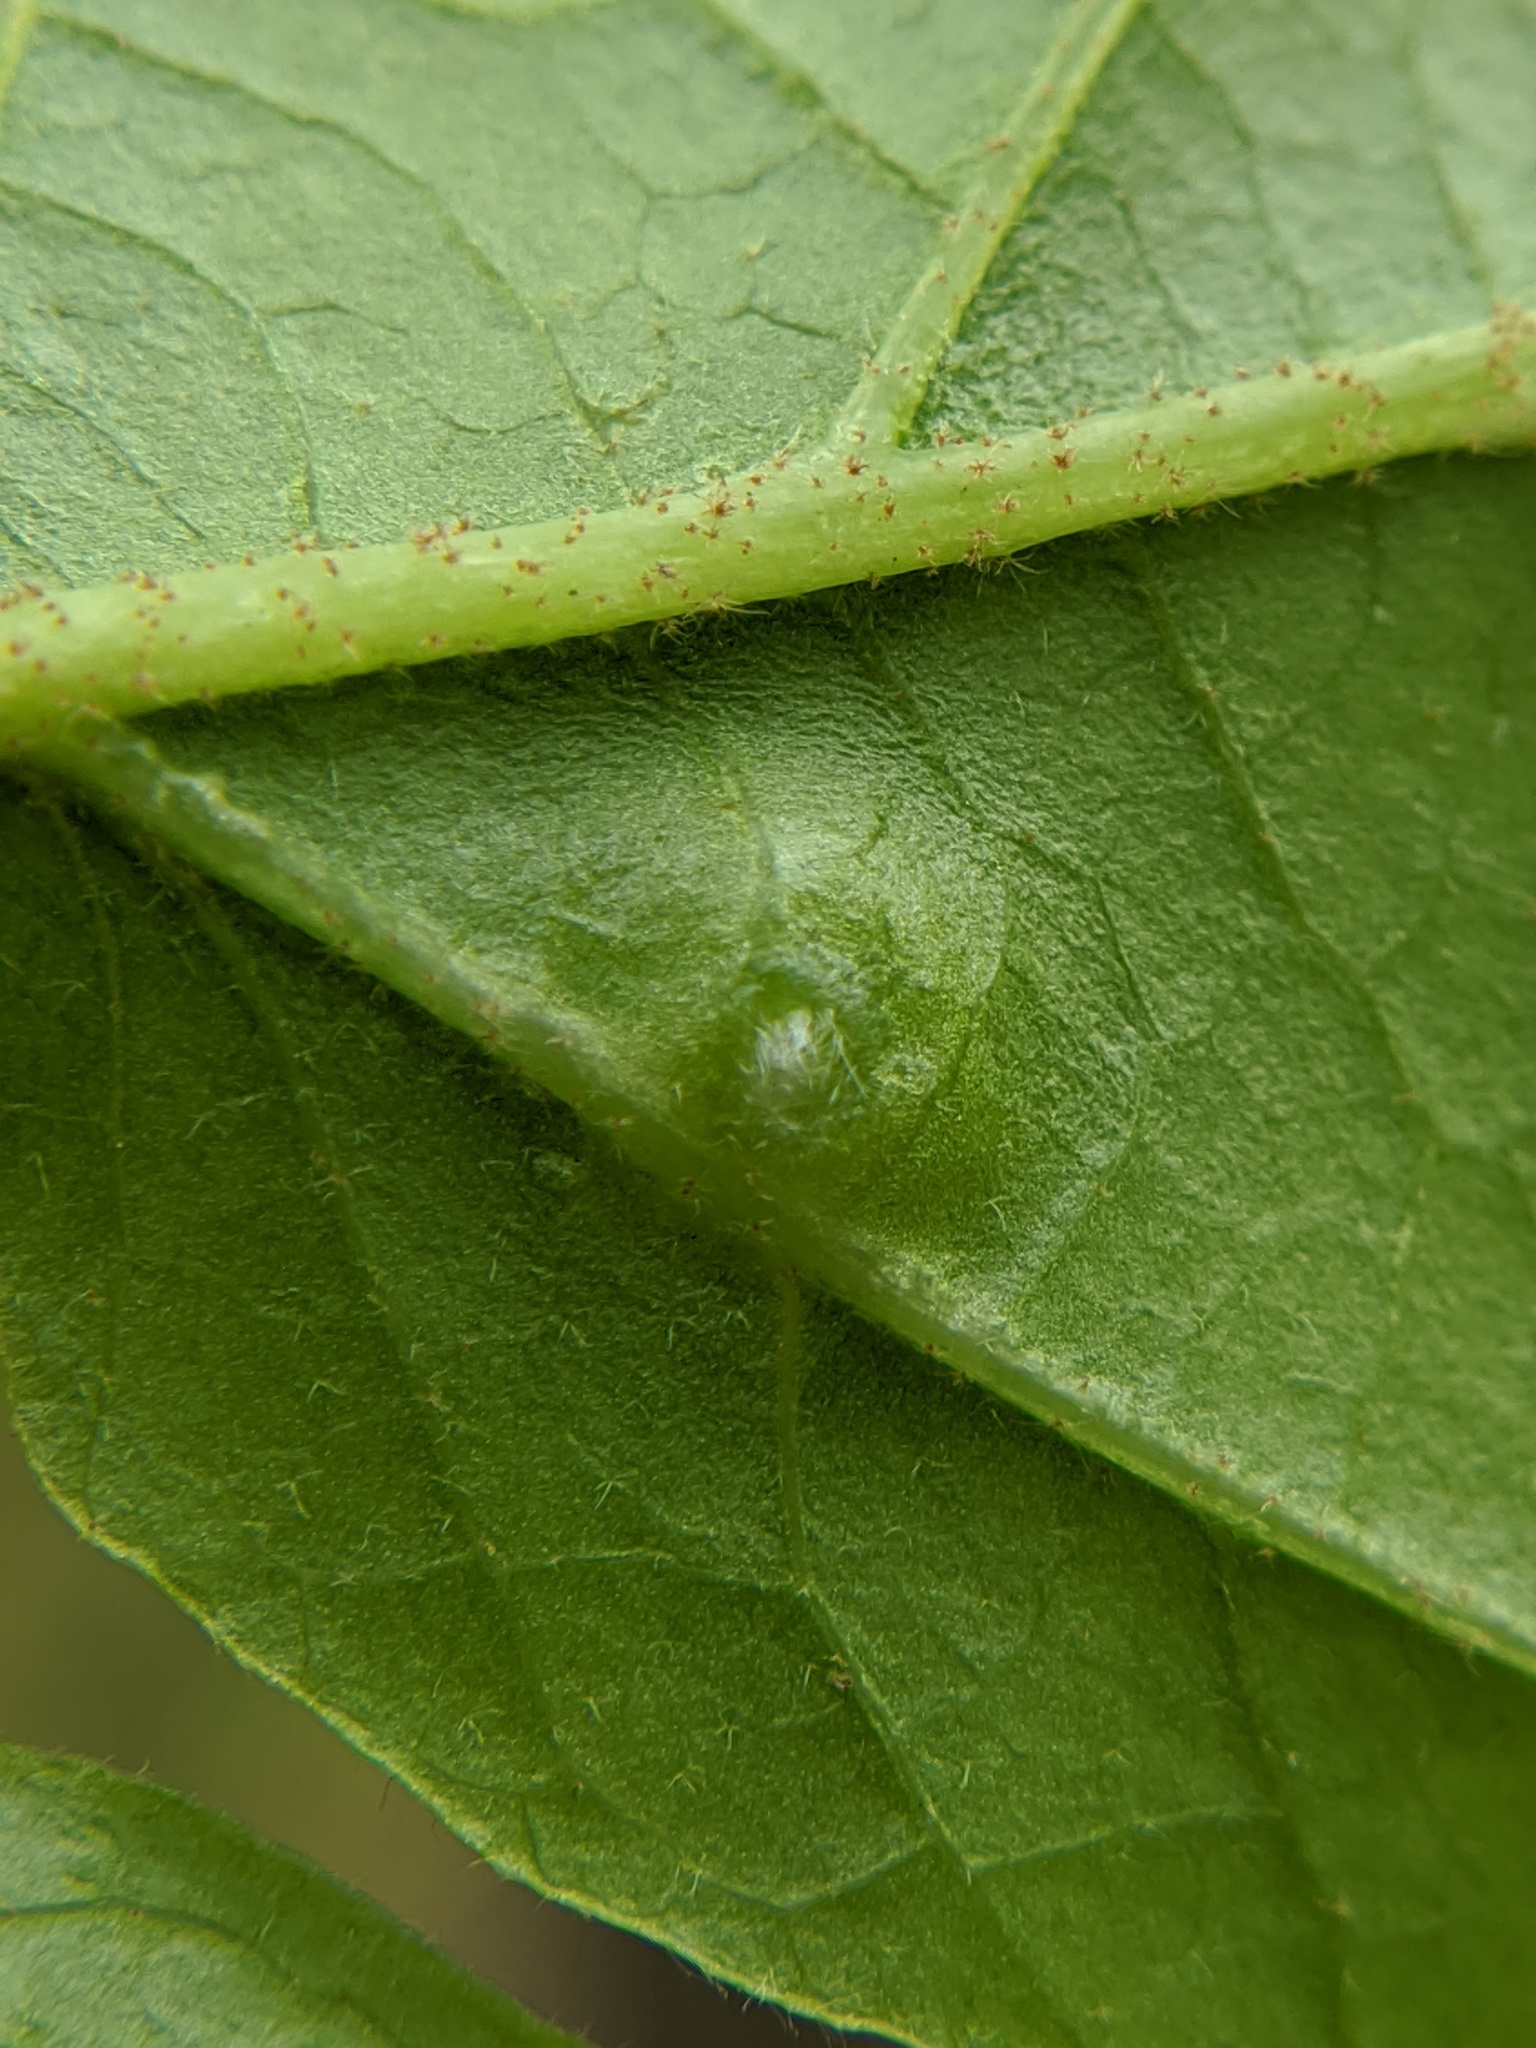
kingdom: Animalia
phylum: Arthropoda
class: Insecta
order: Hemiptera
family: Aphididae
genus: Hormaphis
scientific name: Hormaphis hamamelidis
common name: Witch-hazel cone gall aphid
